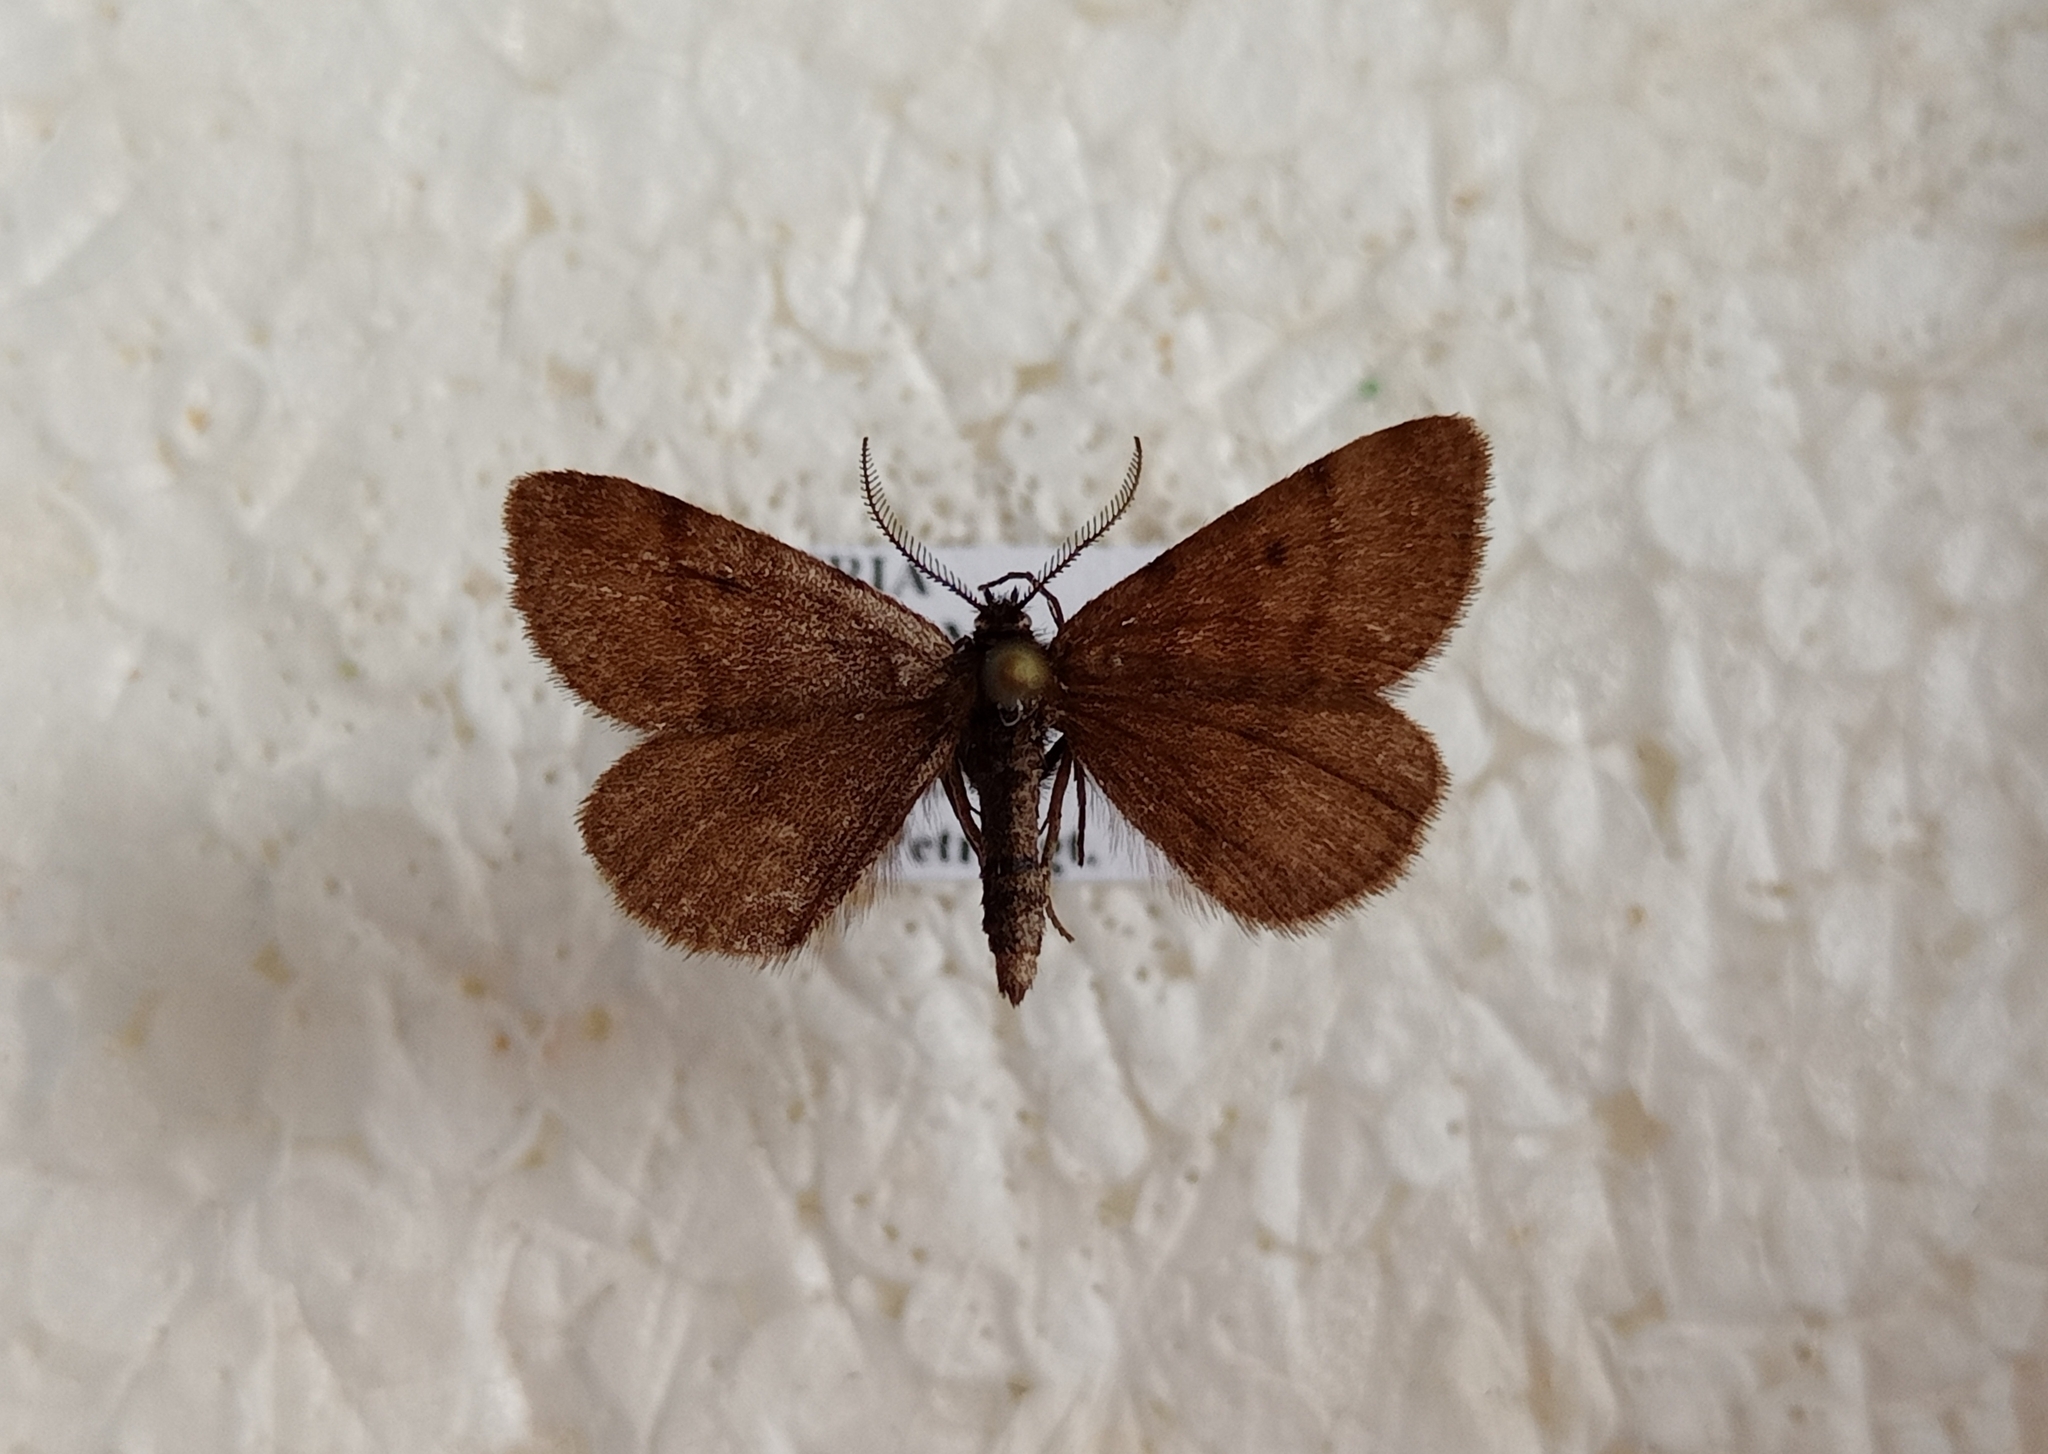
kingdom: Animalia
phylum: Arthropoda
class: Insecta
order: Lepidoptera
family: Geometridae
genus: Macaria
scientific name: Macaria fusca
